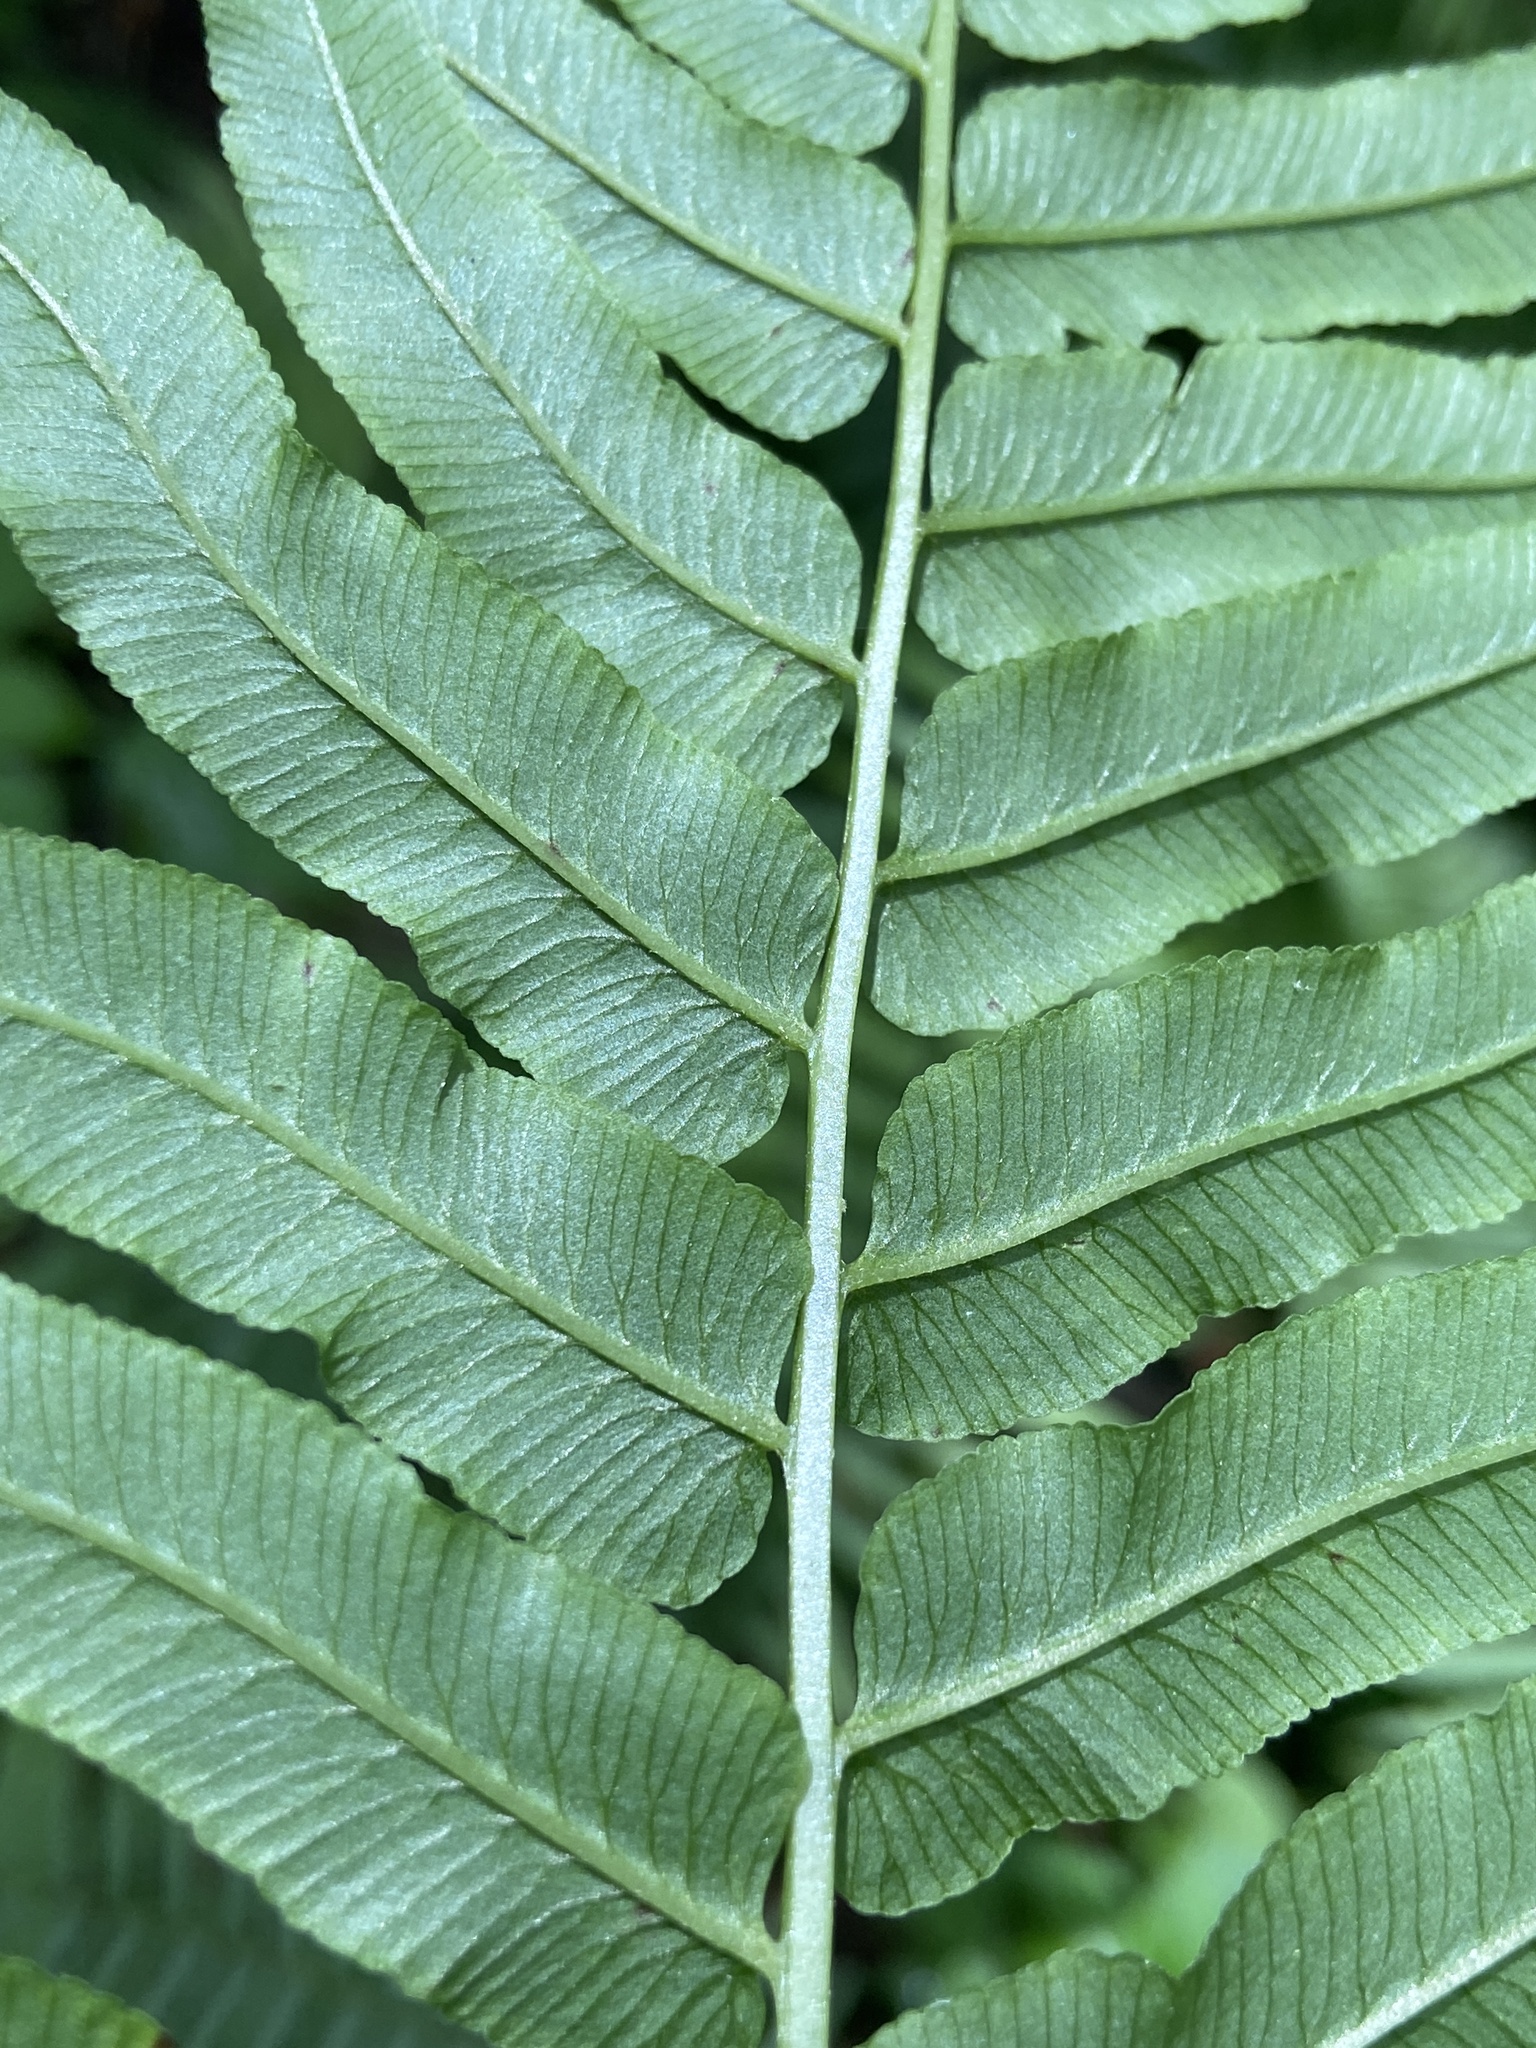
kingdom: Plantae
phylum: Tracheophyta
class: Polypodiopsida
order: Polypodiales
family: Diplaziopsidaceae
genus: Homalosorus
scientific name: Homalosorus pycnocarpos
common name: Glade fern
